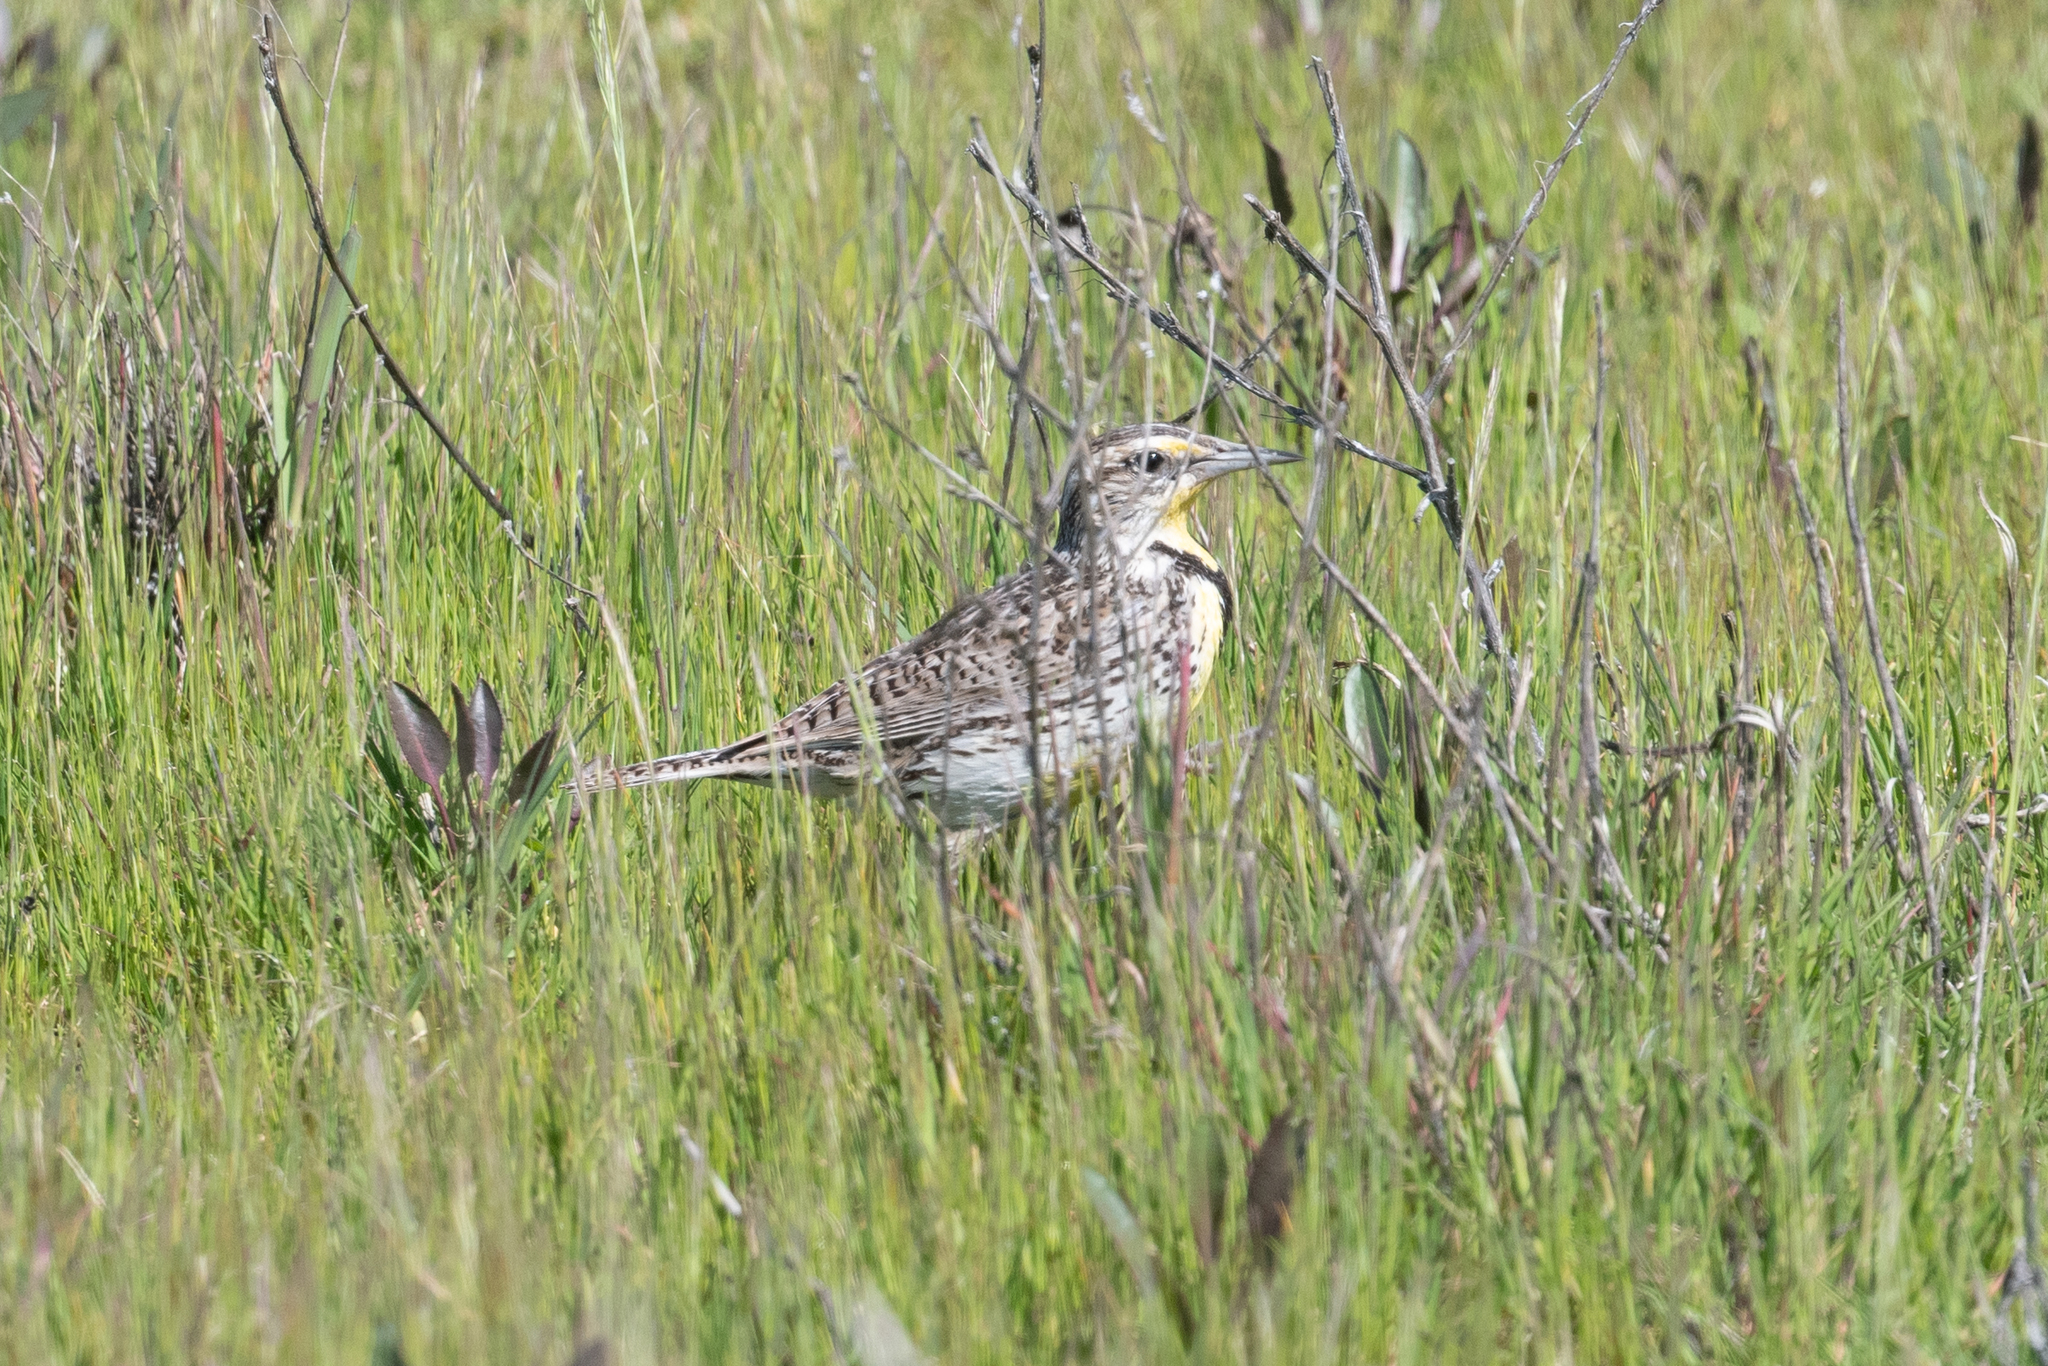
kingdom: Animalia
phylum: Chordata
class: Aves
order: Passeriformes
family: Icteridae
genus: Sturnella
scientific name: Sturnella neglecta
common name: Western meadowlark
